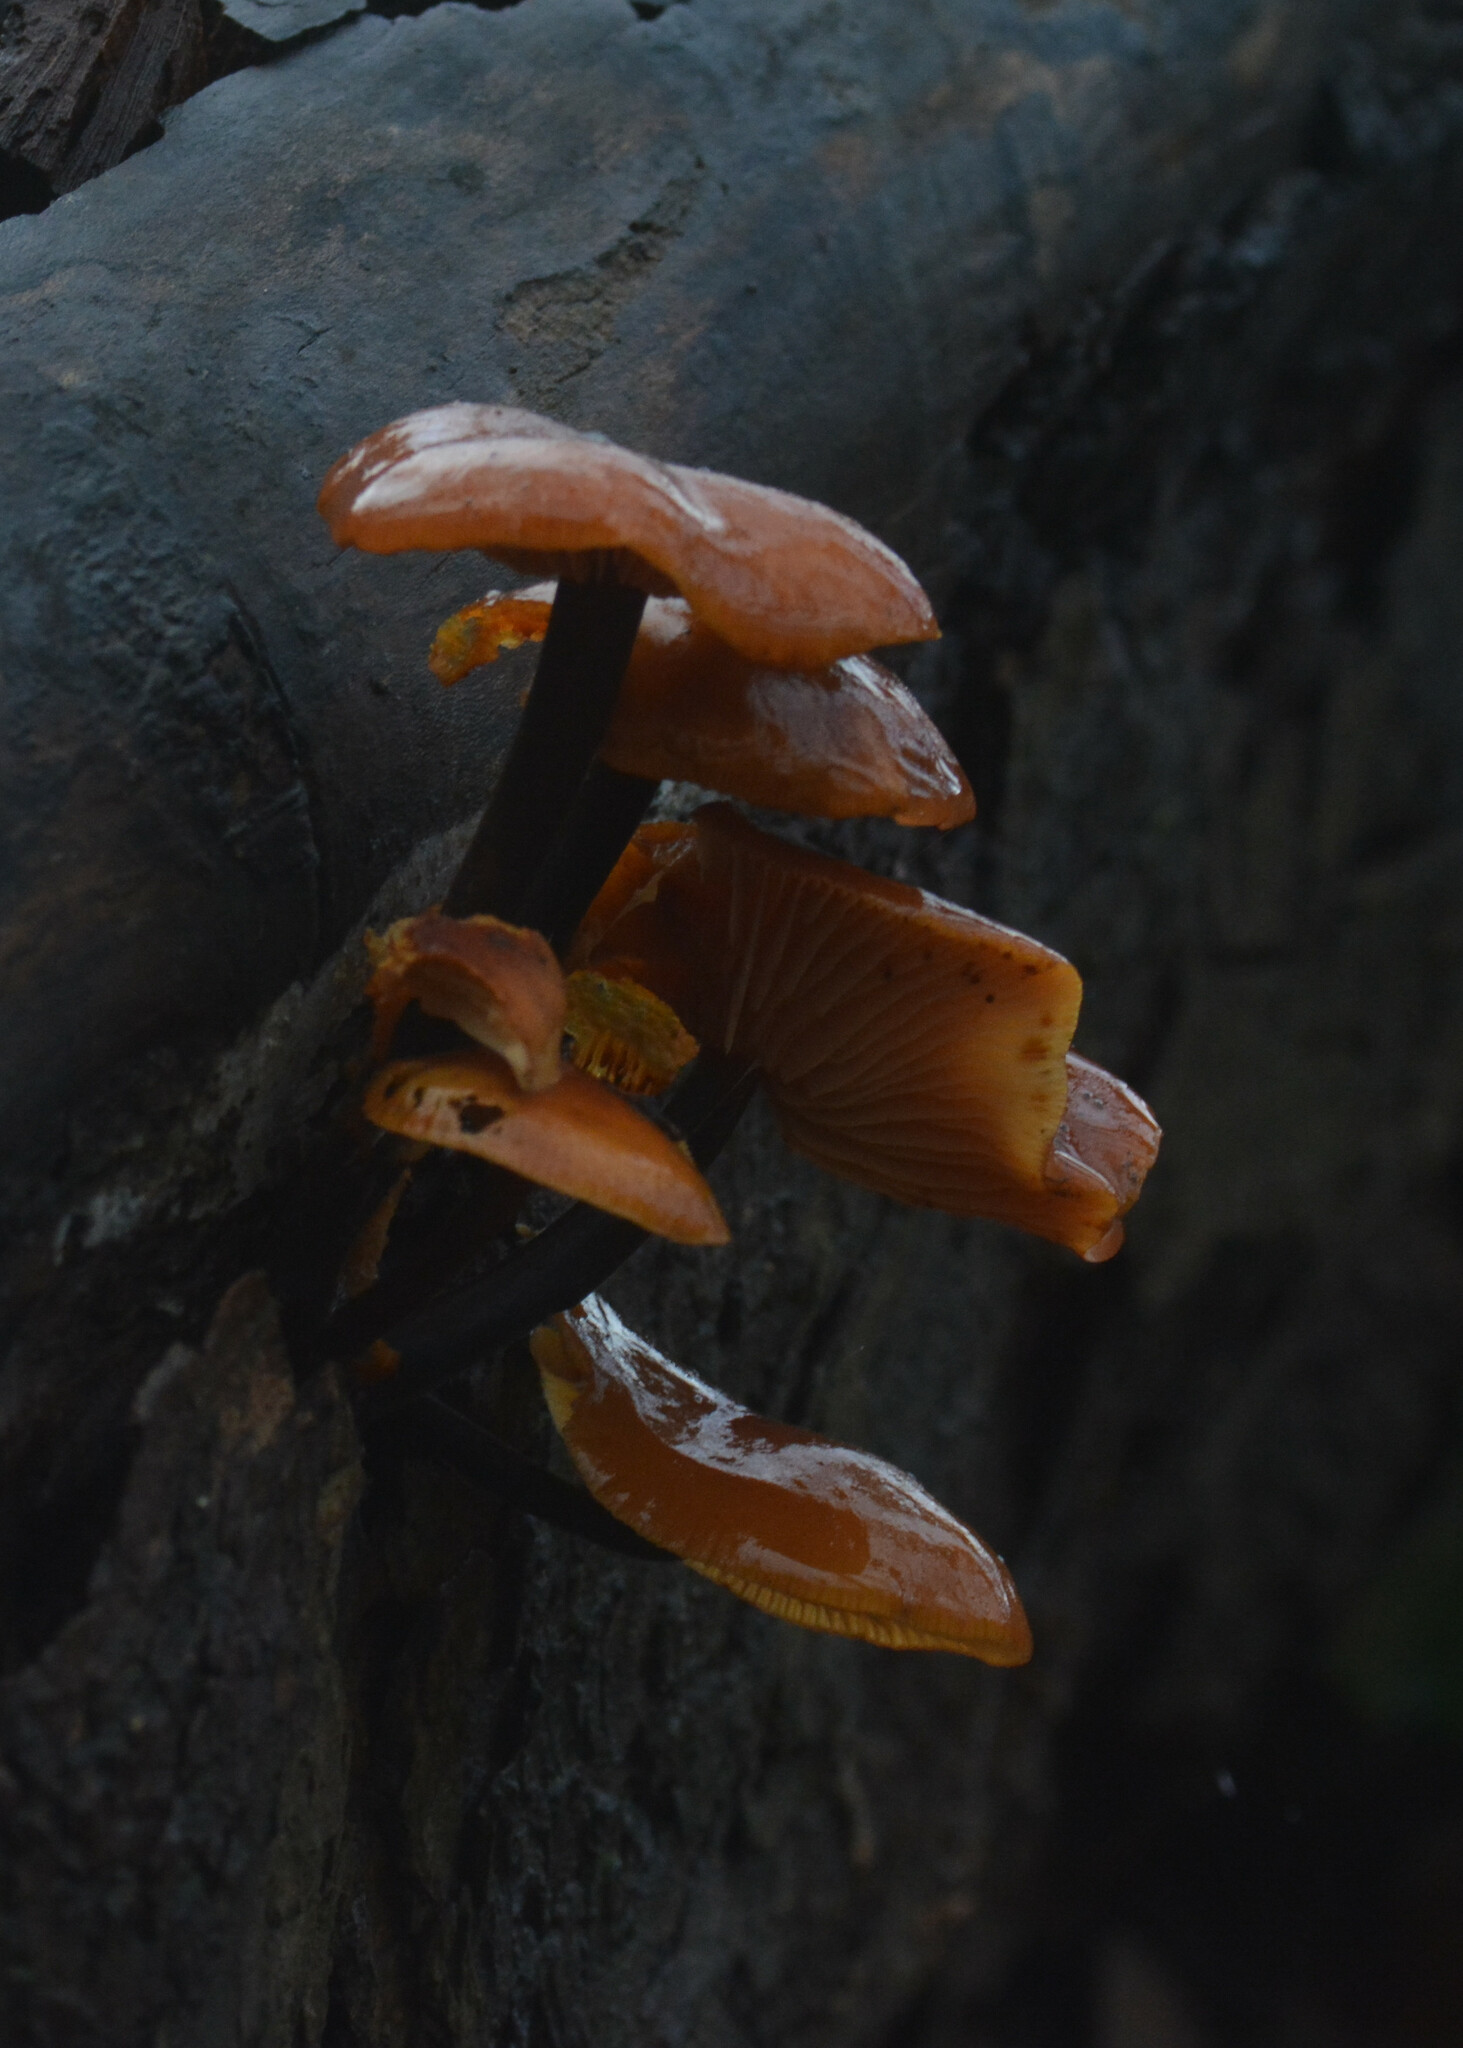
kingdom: Fungi
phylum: Basidiomycota
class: Agaricomycetes
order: Agaricales
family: Physalacriaceae
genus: Flammulina
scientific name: Flammulina
